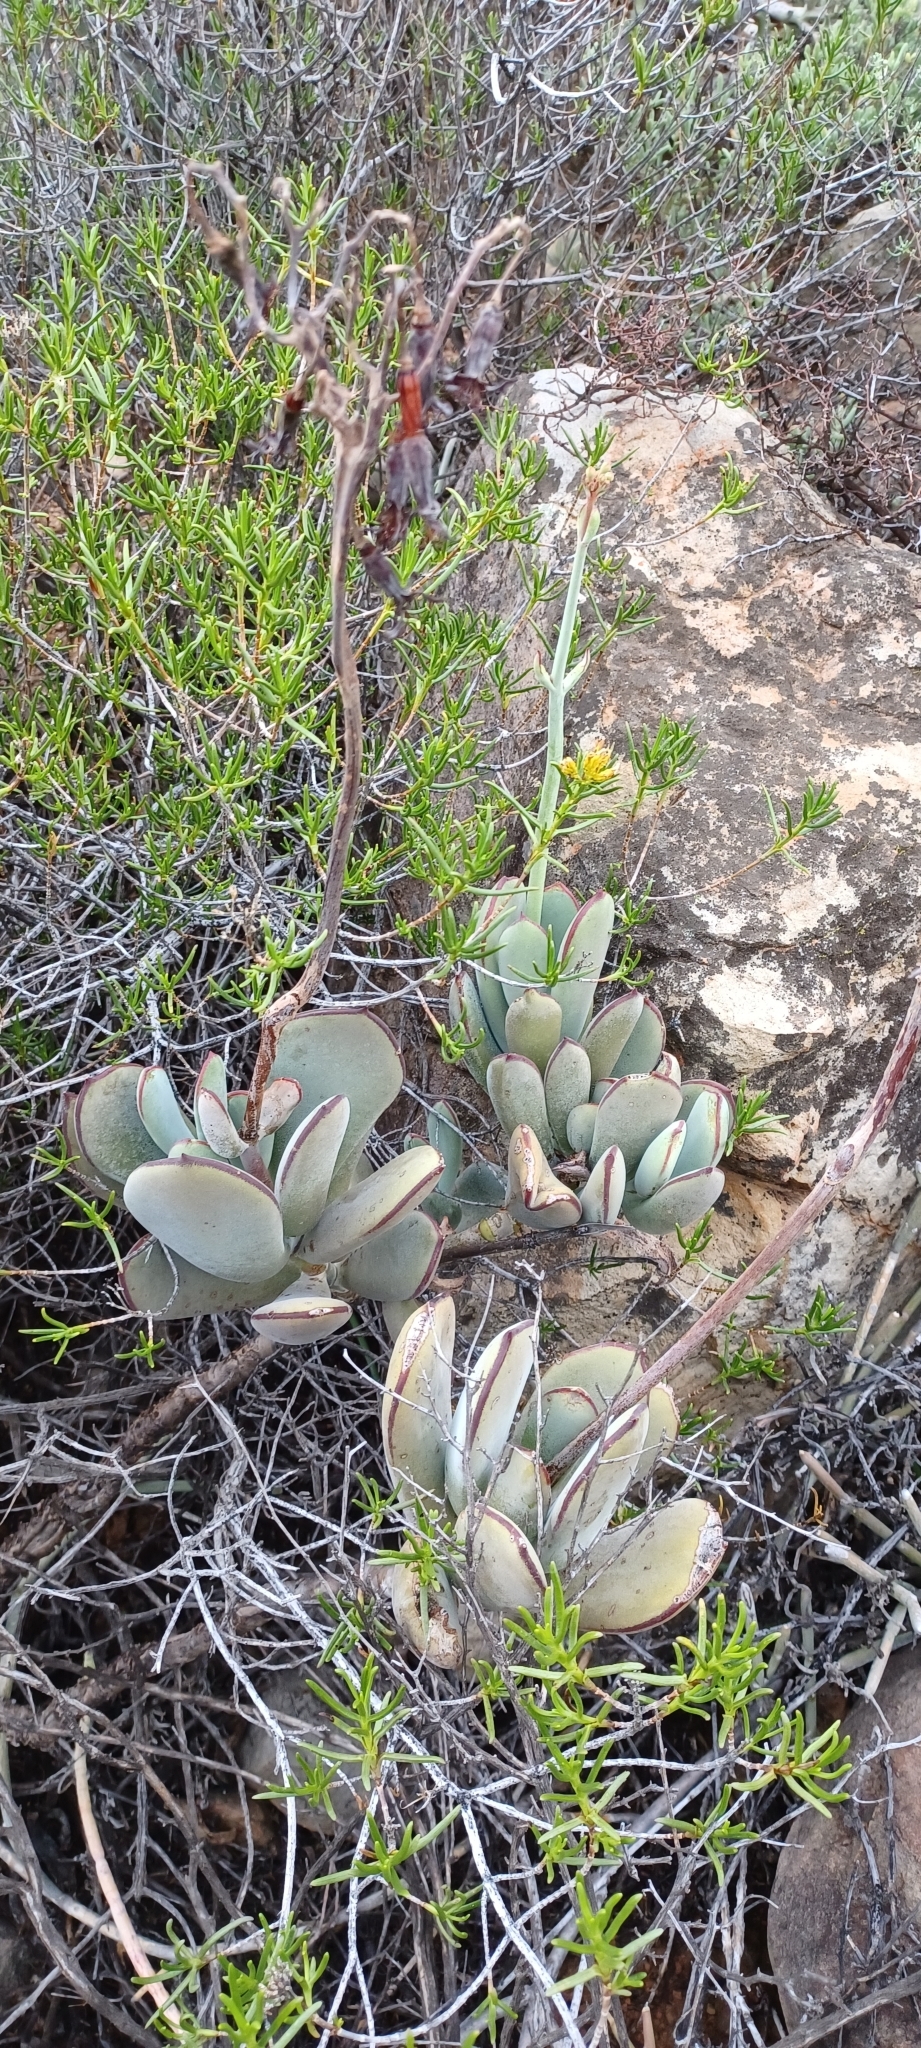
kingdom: Plantae
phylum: Tracheophyta
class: Magnoliopsida
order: Saxifragales
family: Crassulaceae
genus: Cotyledon
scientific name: Cotyledon orbiculata
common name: Pig's ear
